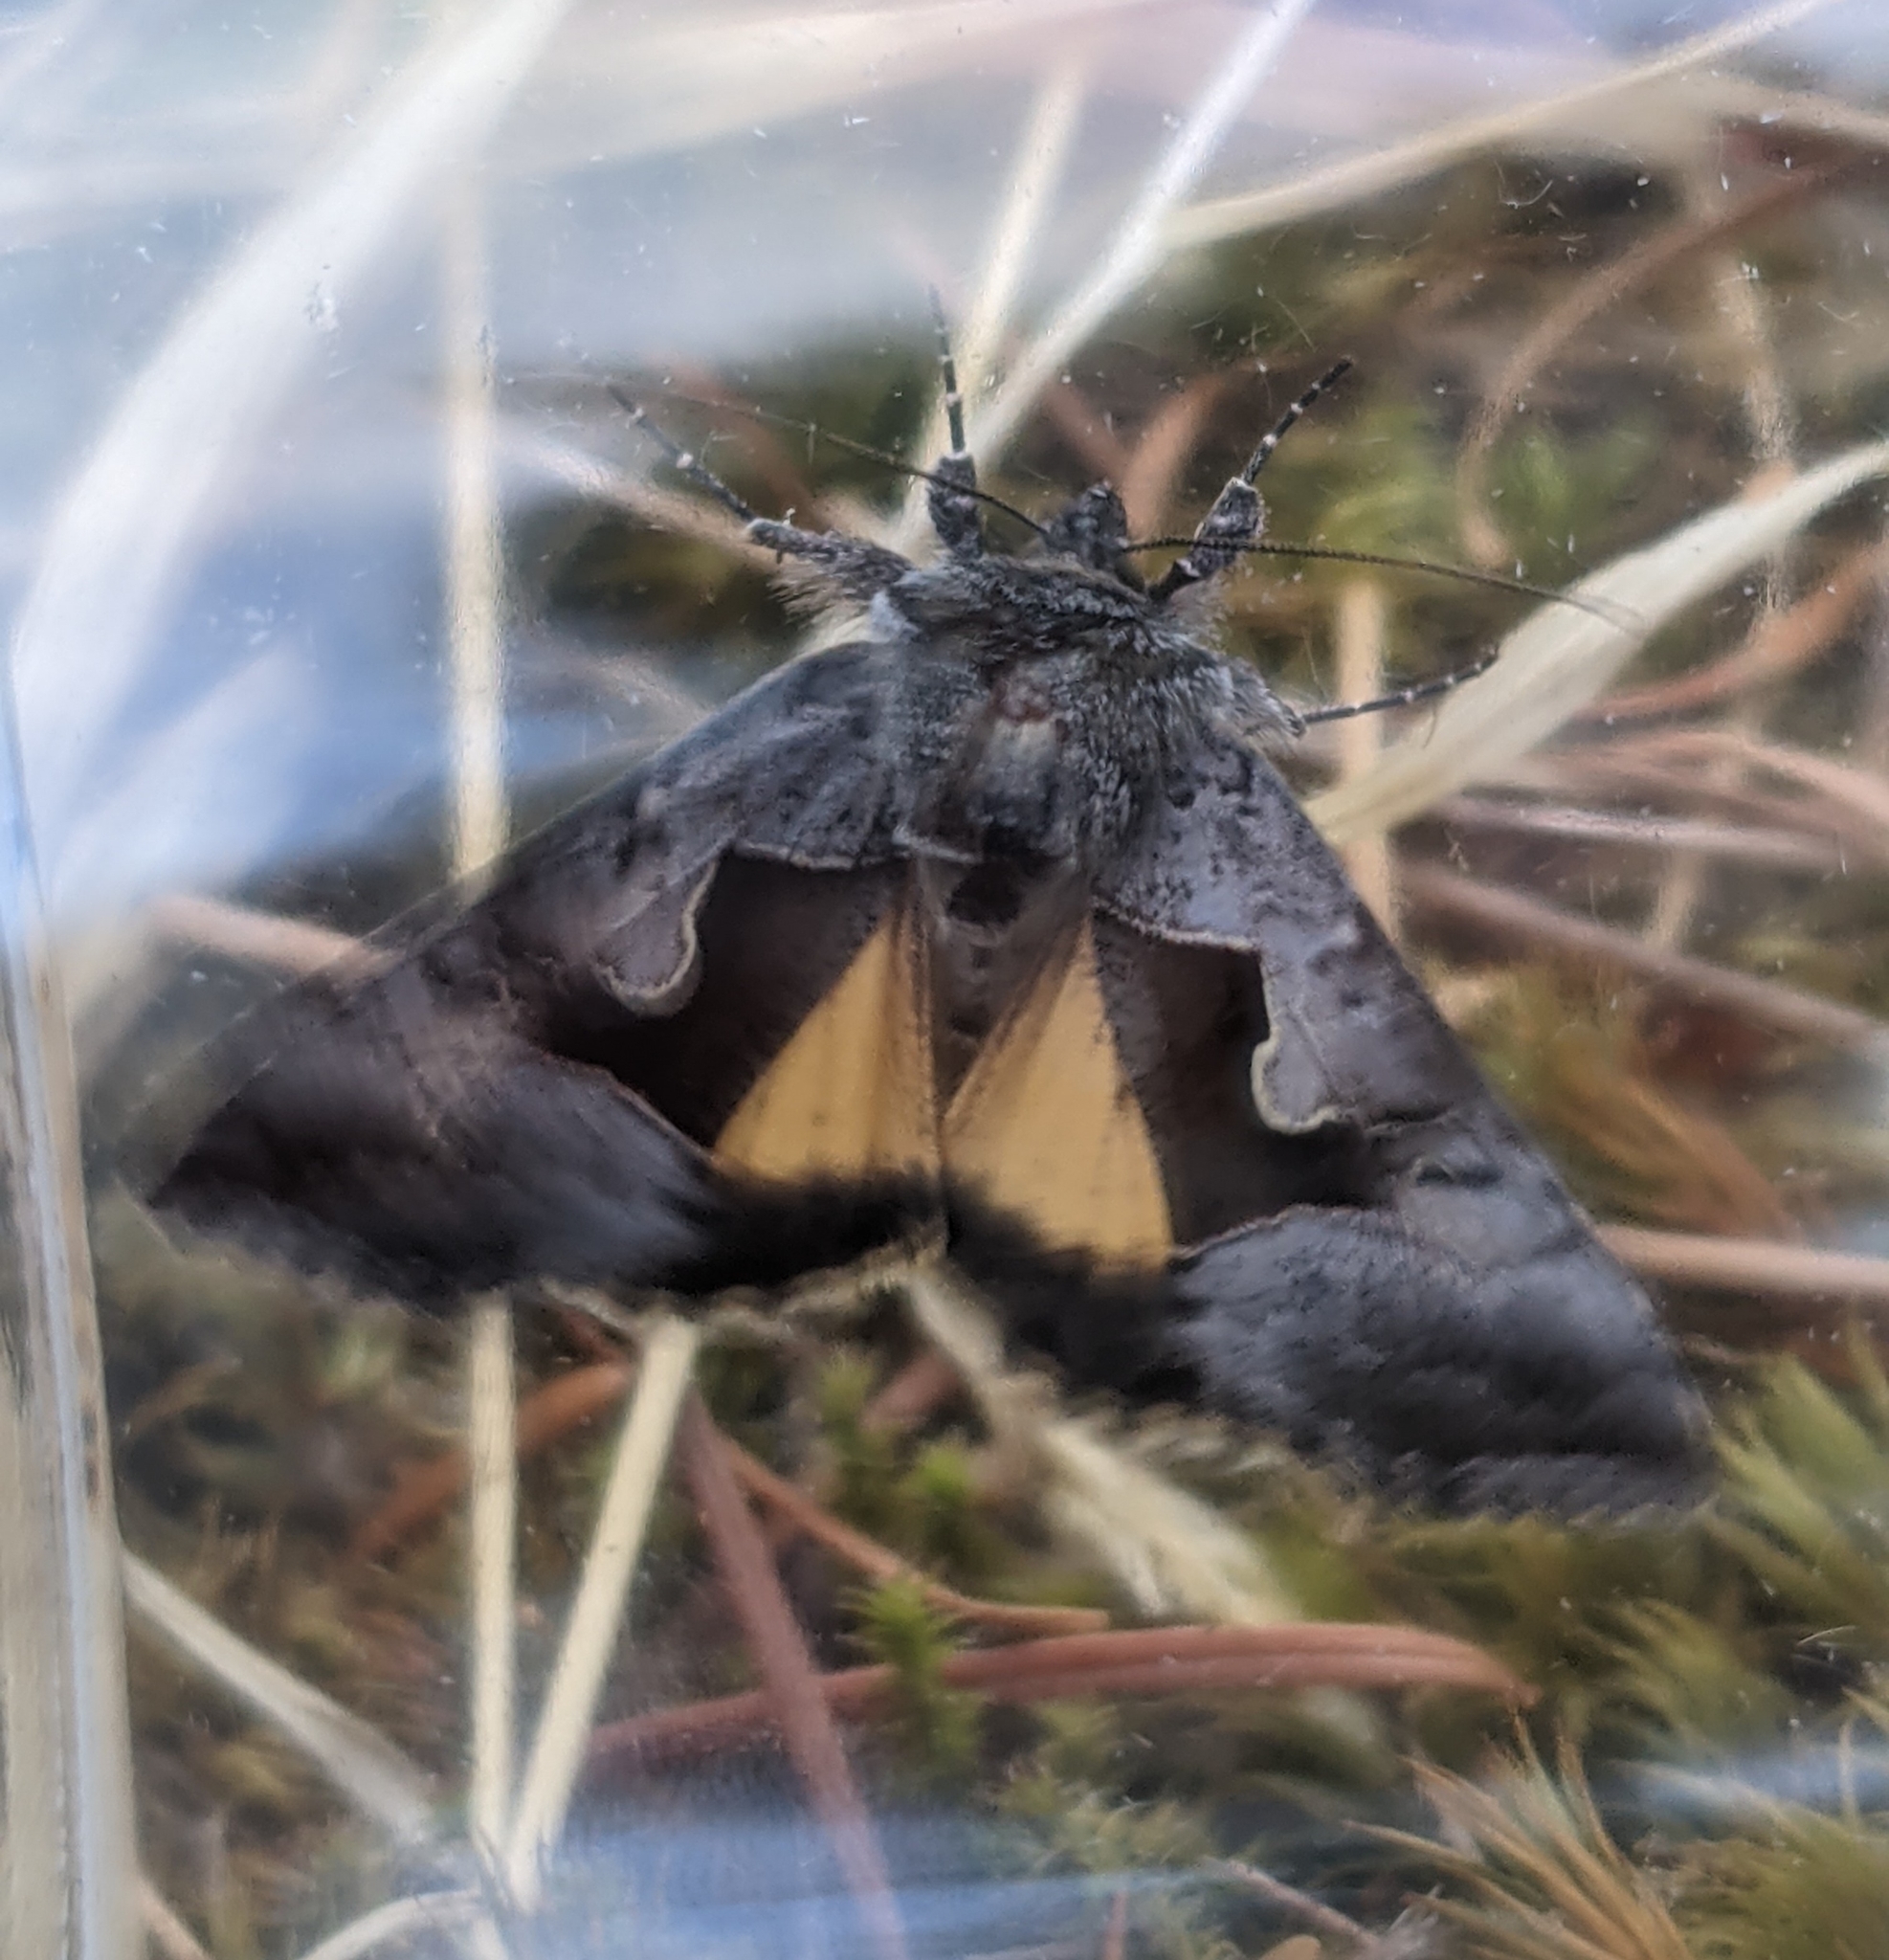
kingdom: Animalia
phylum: Arthropoda
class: Insecta
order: Lepidoptera
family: Noctuidae
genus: Syngrapha
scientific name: Syngrapha orophila
